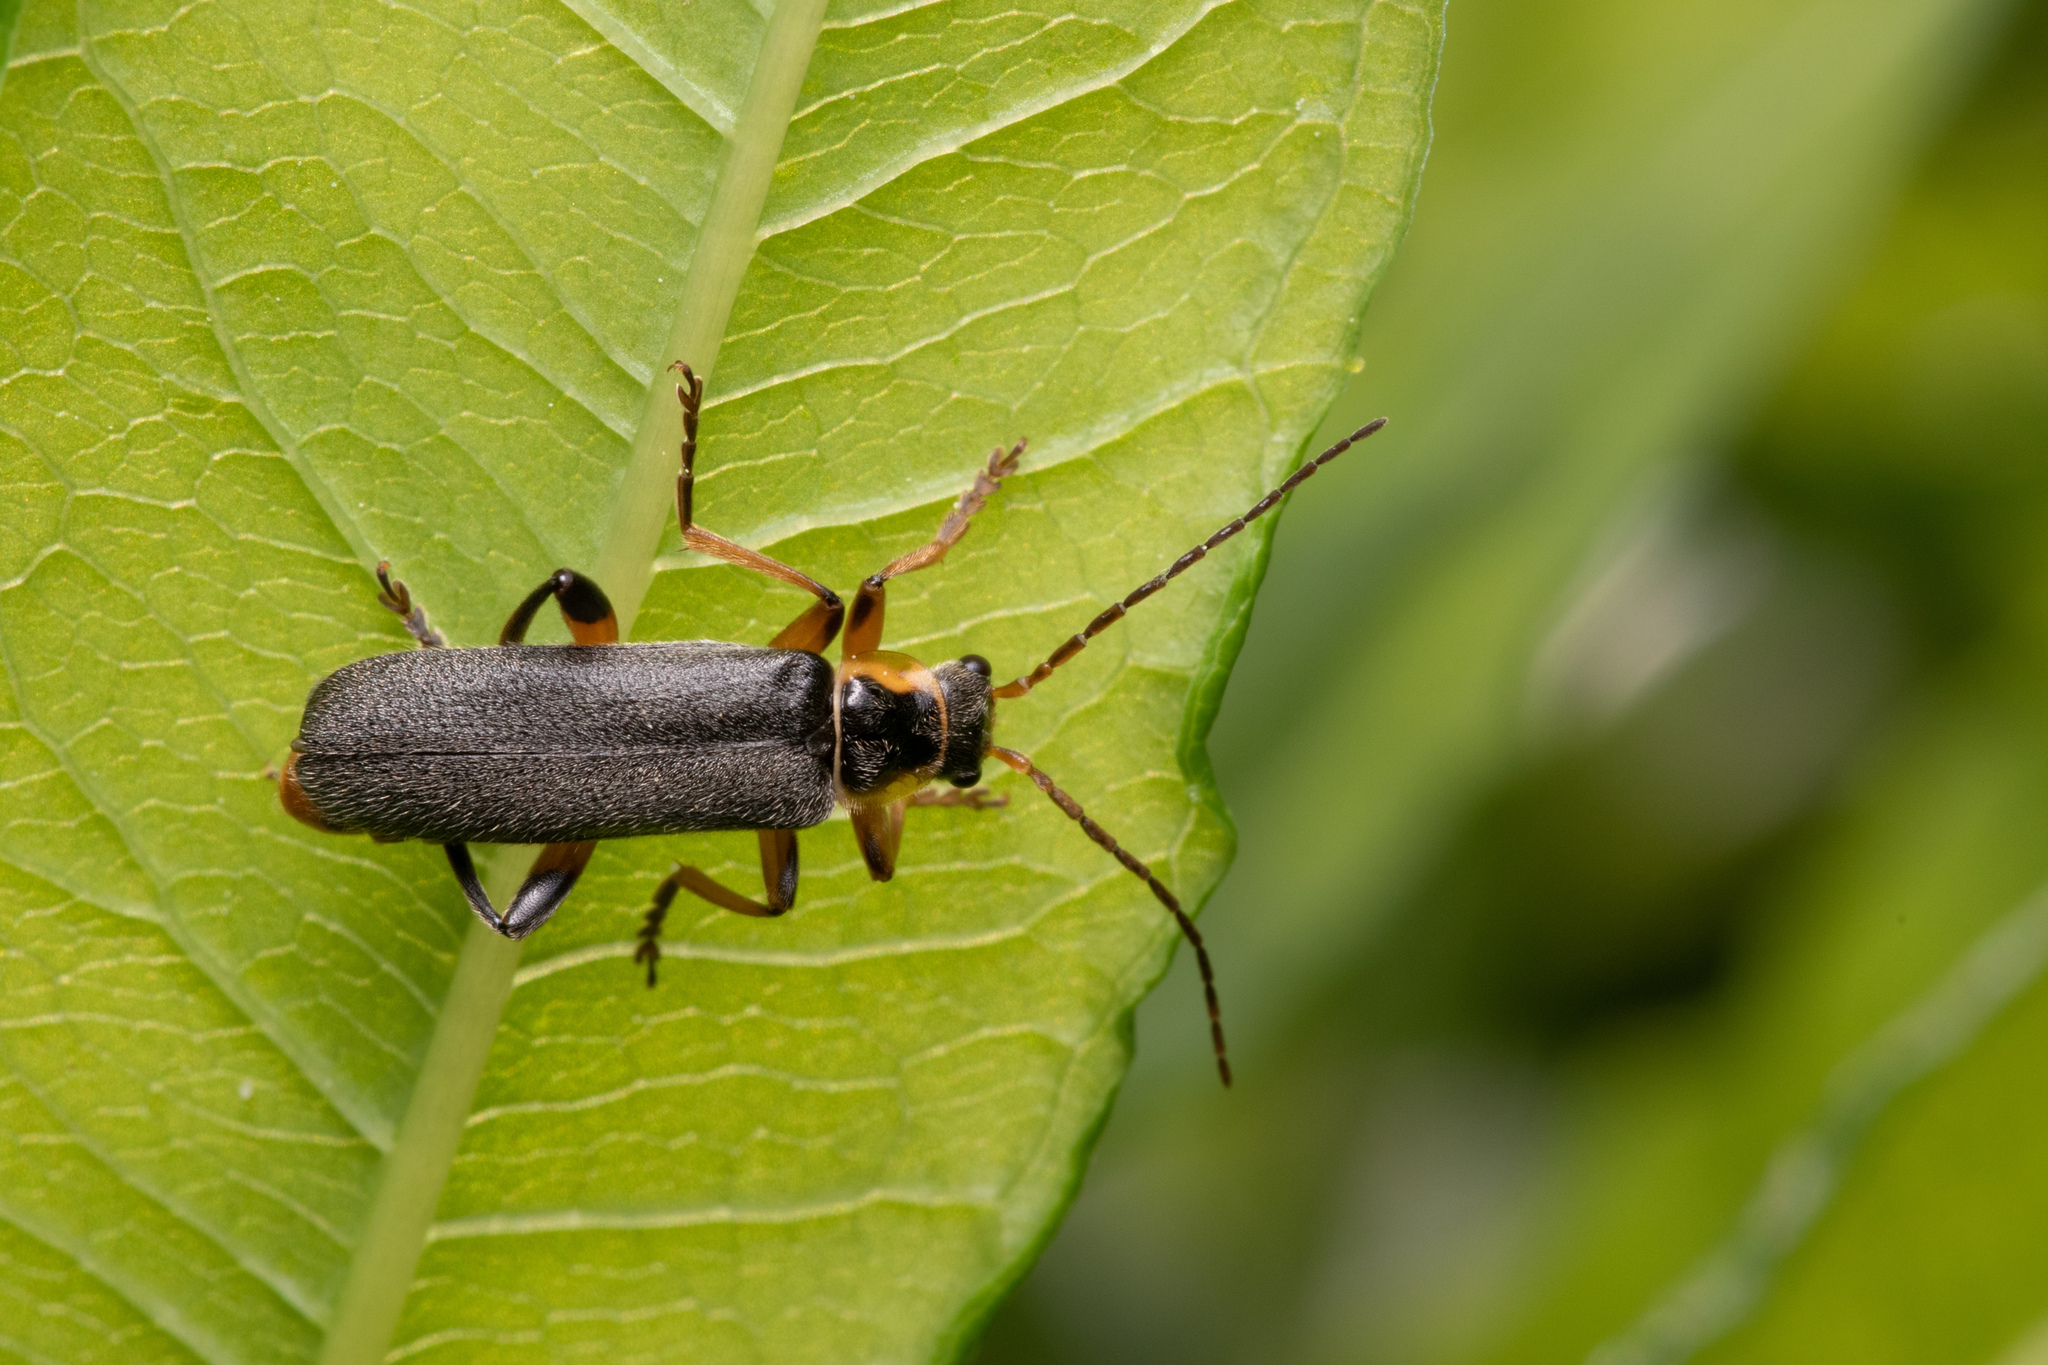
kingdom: Animalia
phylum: Arthropoda
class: Insecta
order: Coleoptera
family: Cantharidae
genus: Cantharis
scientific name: Cantharis nigricans
